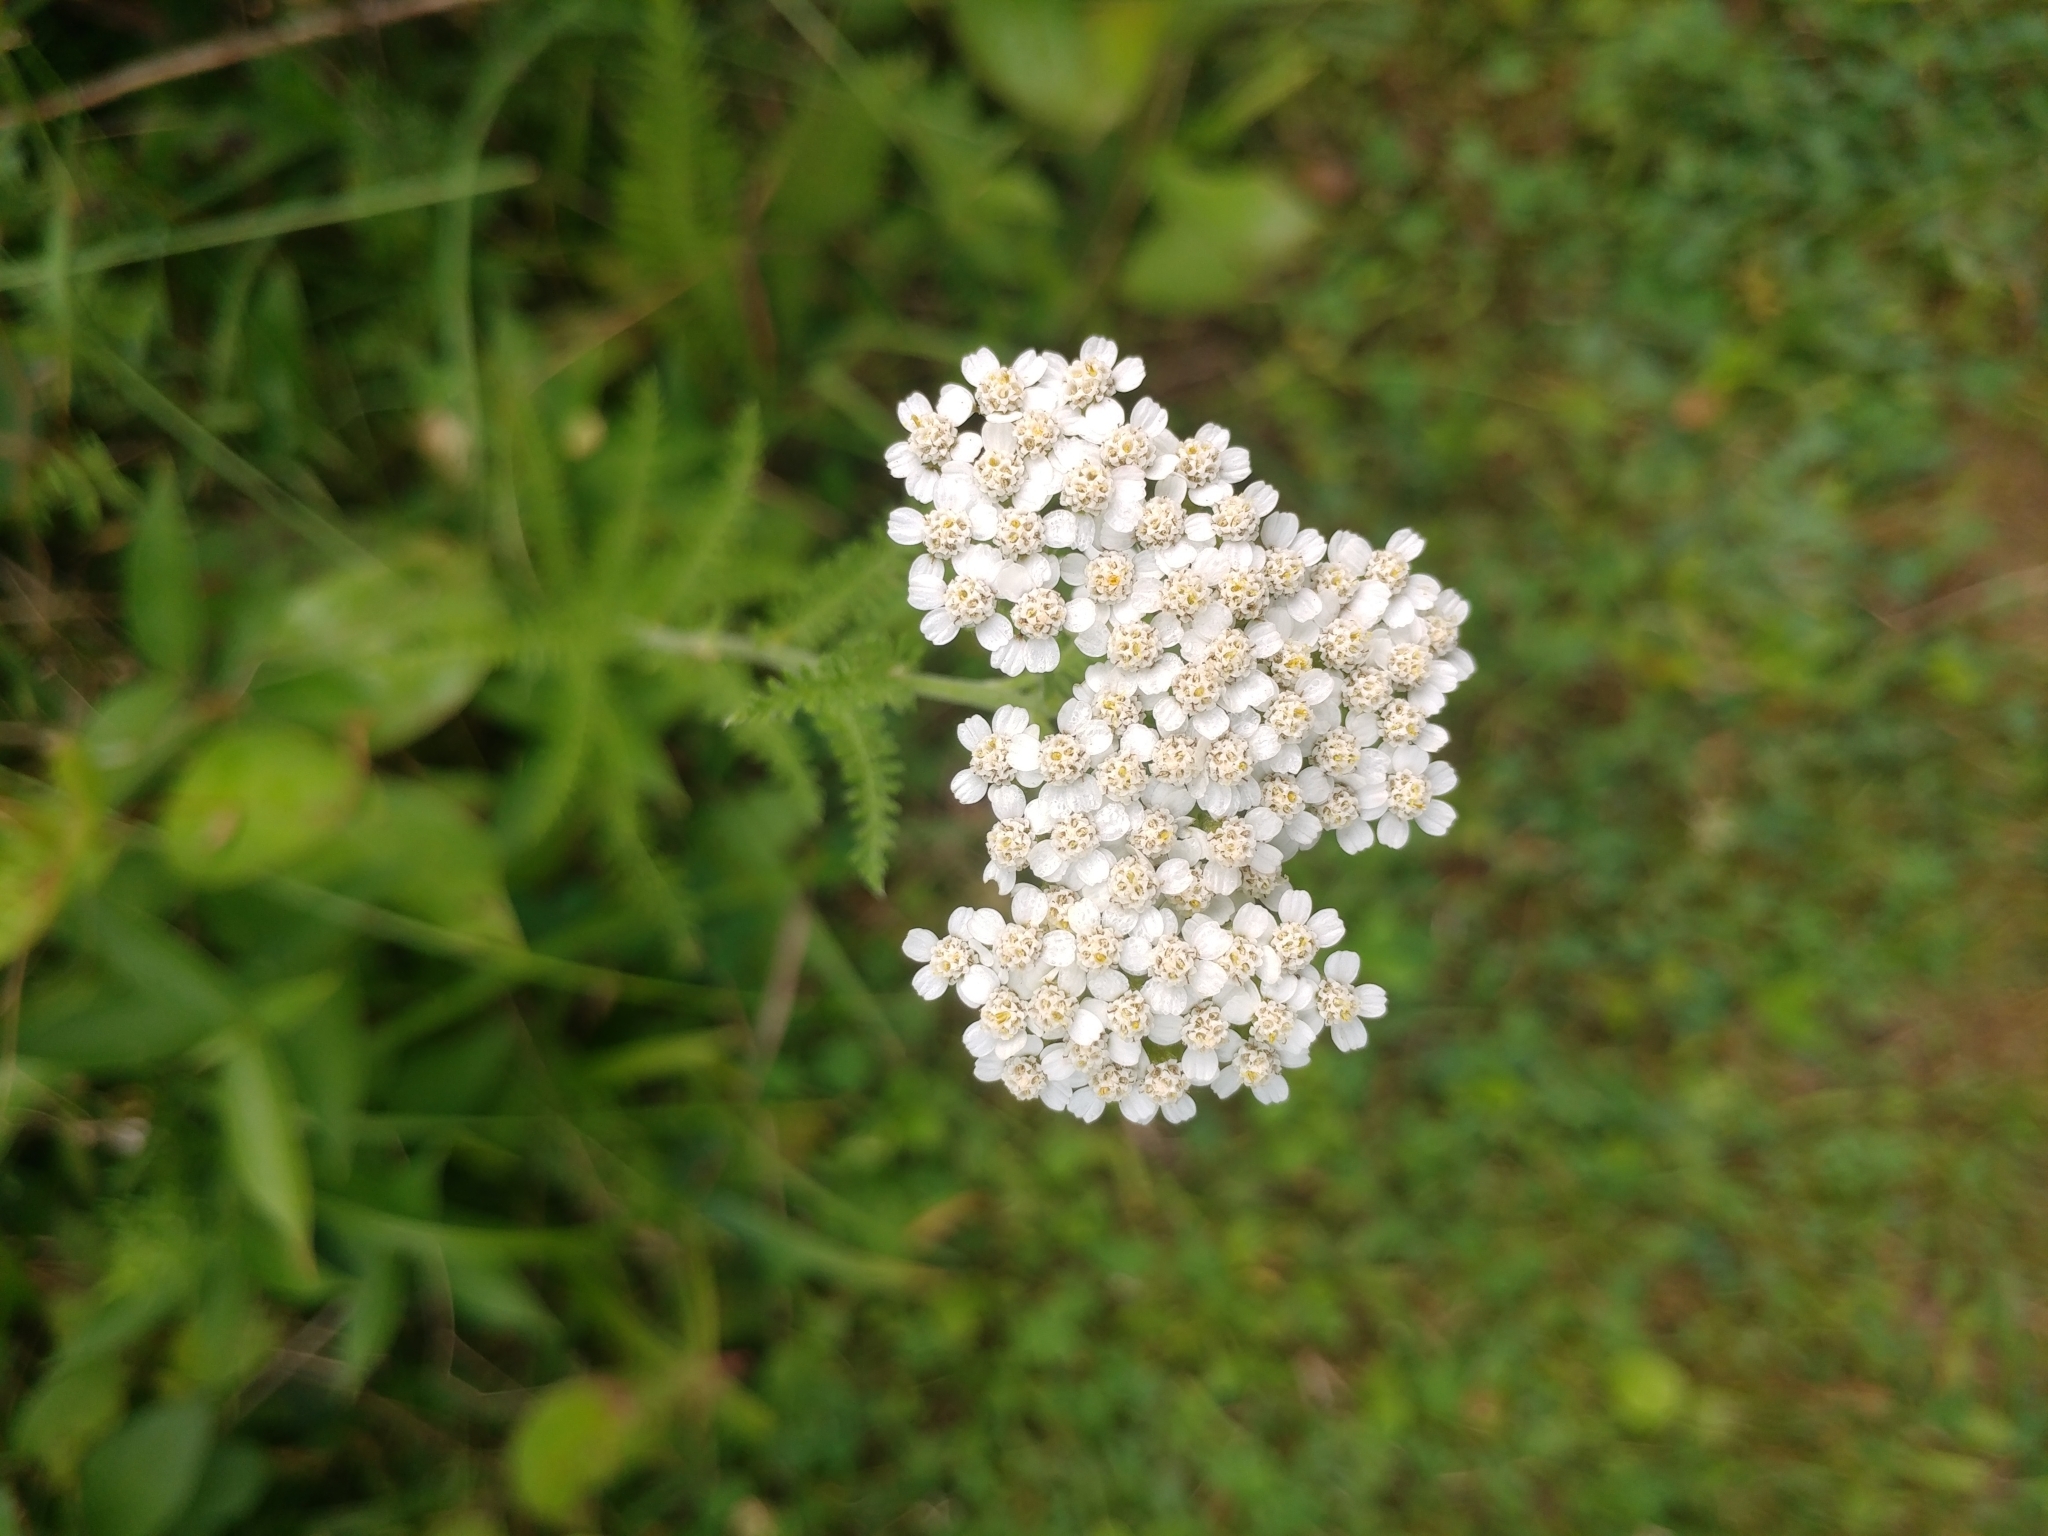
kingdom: Plantae
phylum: Tracheophyta
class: Magnoliopsida
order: Asterales
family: Asteraceae
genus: Achillea
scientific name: Achillea millefolium
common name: Yarrow
